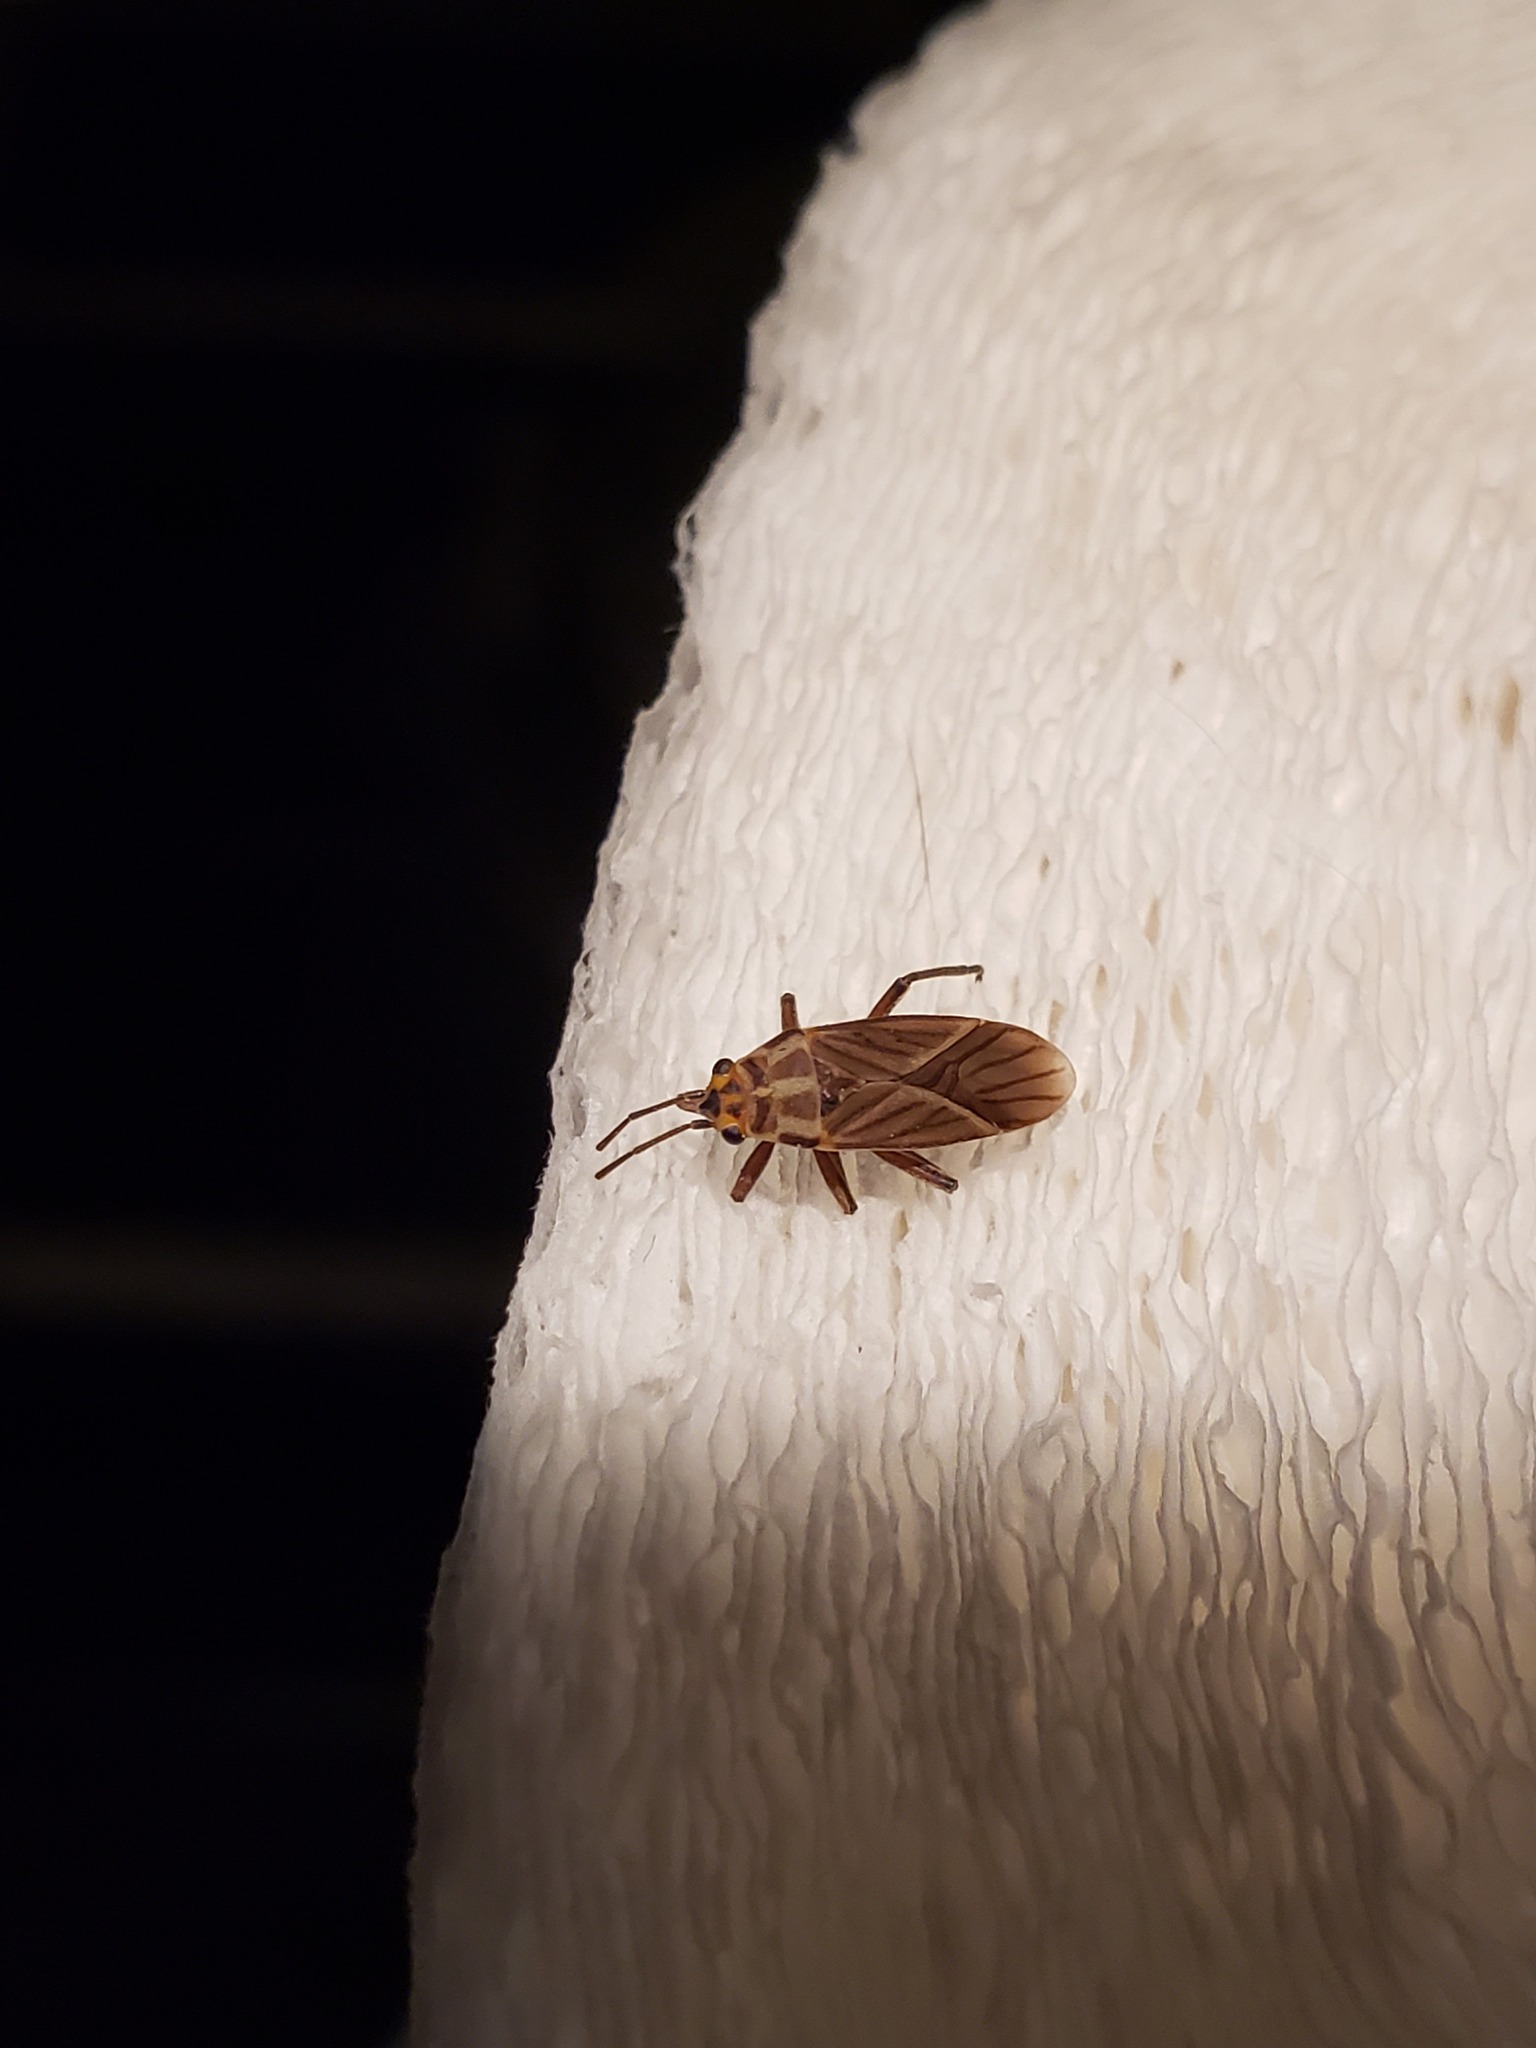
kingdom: Animalia
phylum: Arthropoda
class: Insecta
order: Hemiptera
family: Lygaeidae
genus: Torvochrimnus
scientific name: Torvochrimnus poeyi
